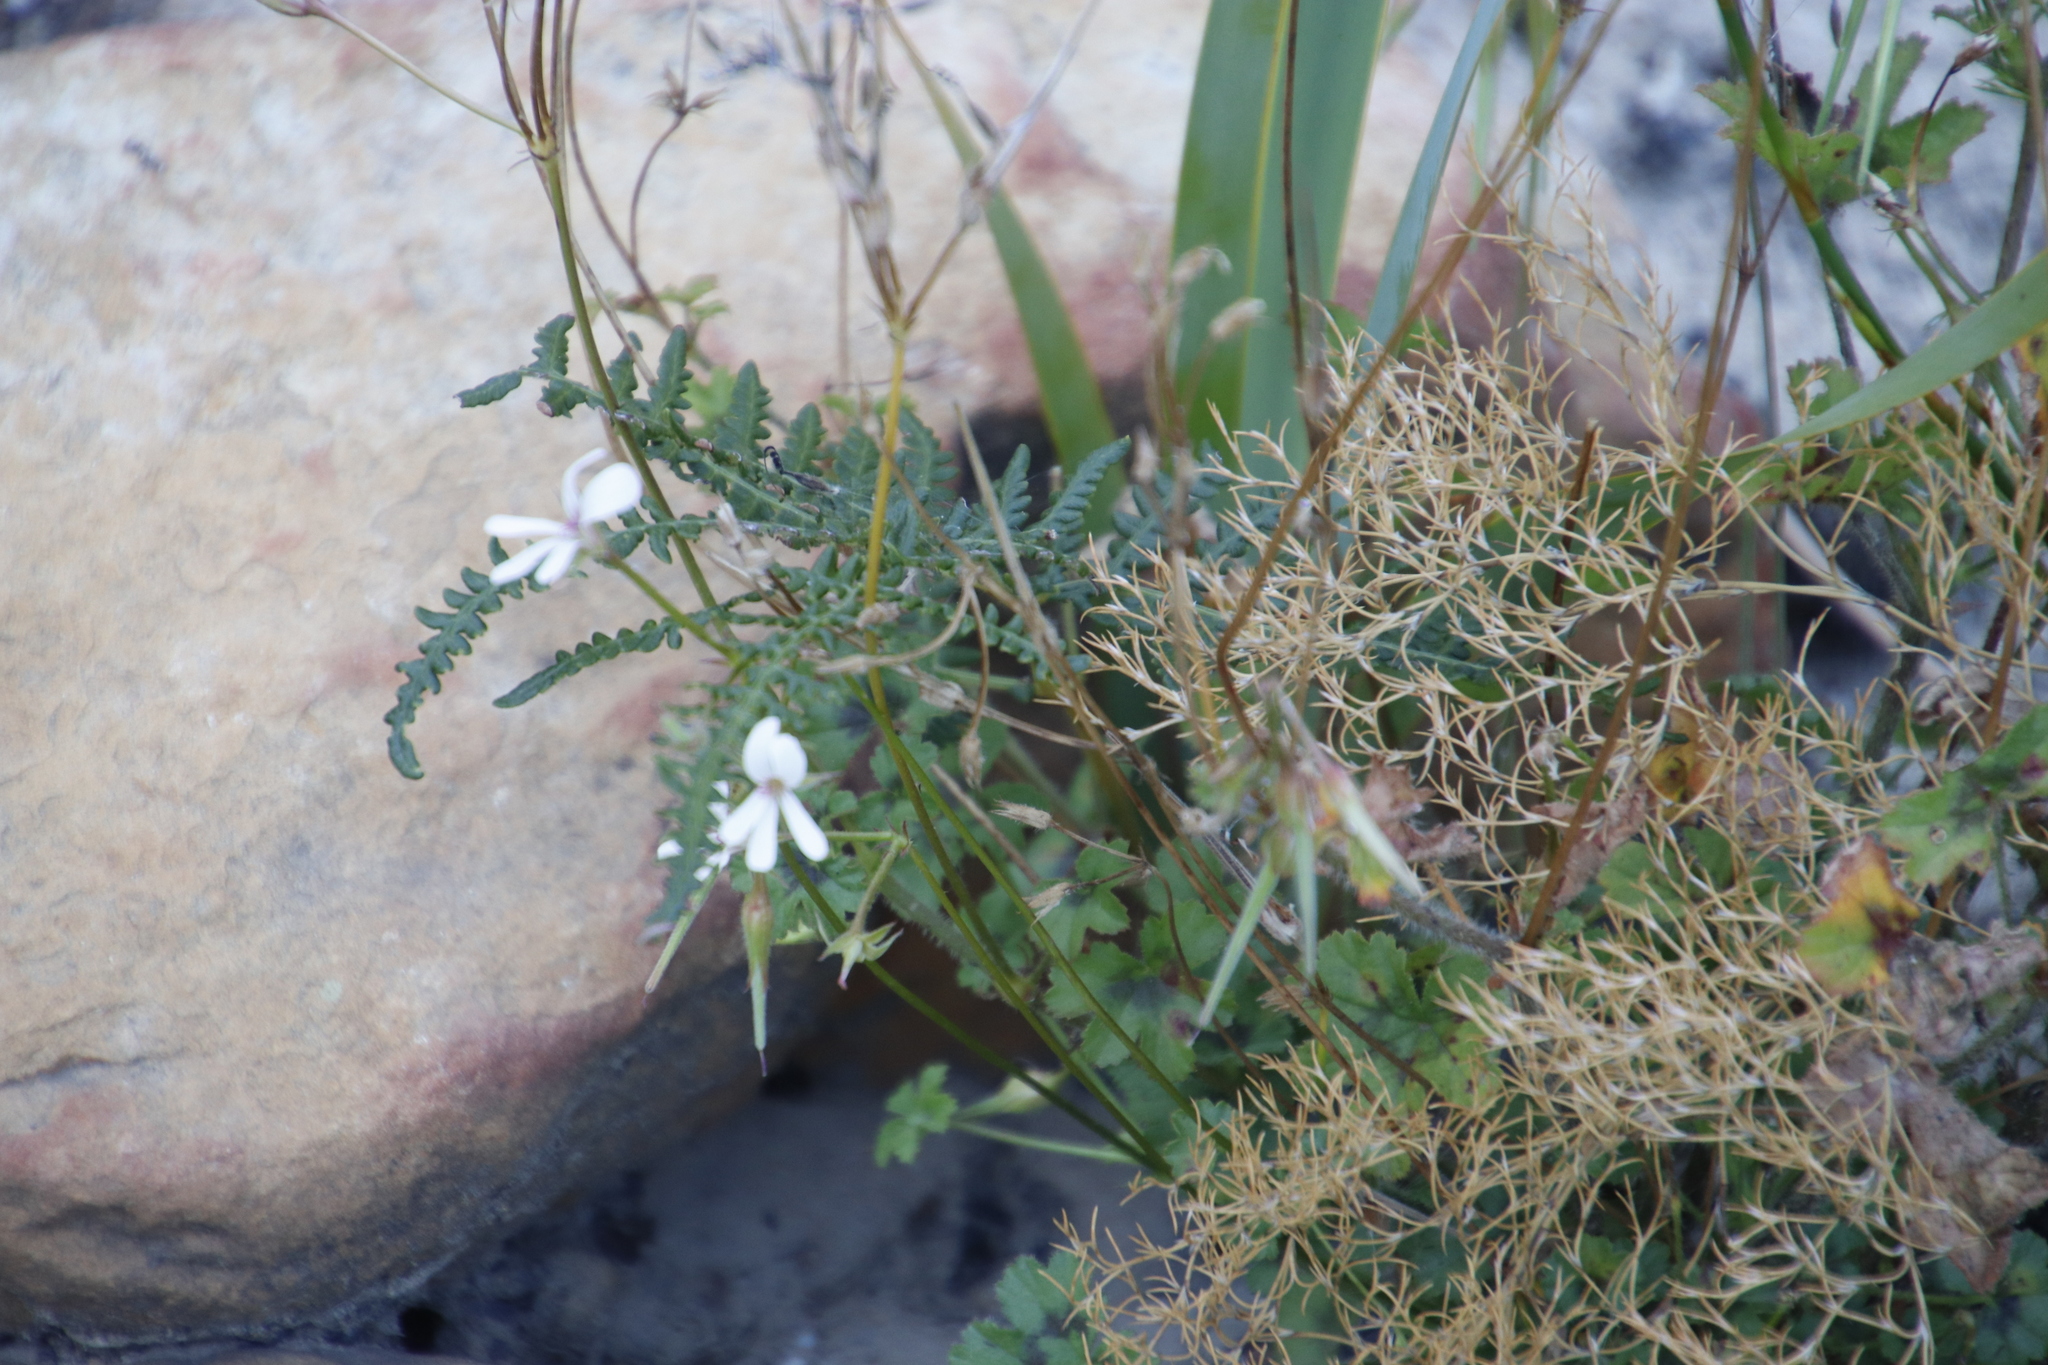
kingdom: Plantae
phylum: Tracheophyta
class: Magnoliopsida
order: Geraniales
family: Geraniaceae
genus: Pelargonium
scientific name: Pelargonium elongatum
